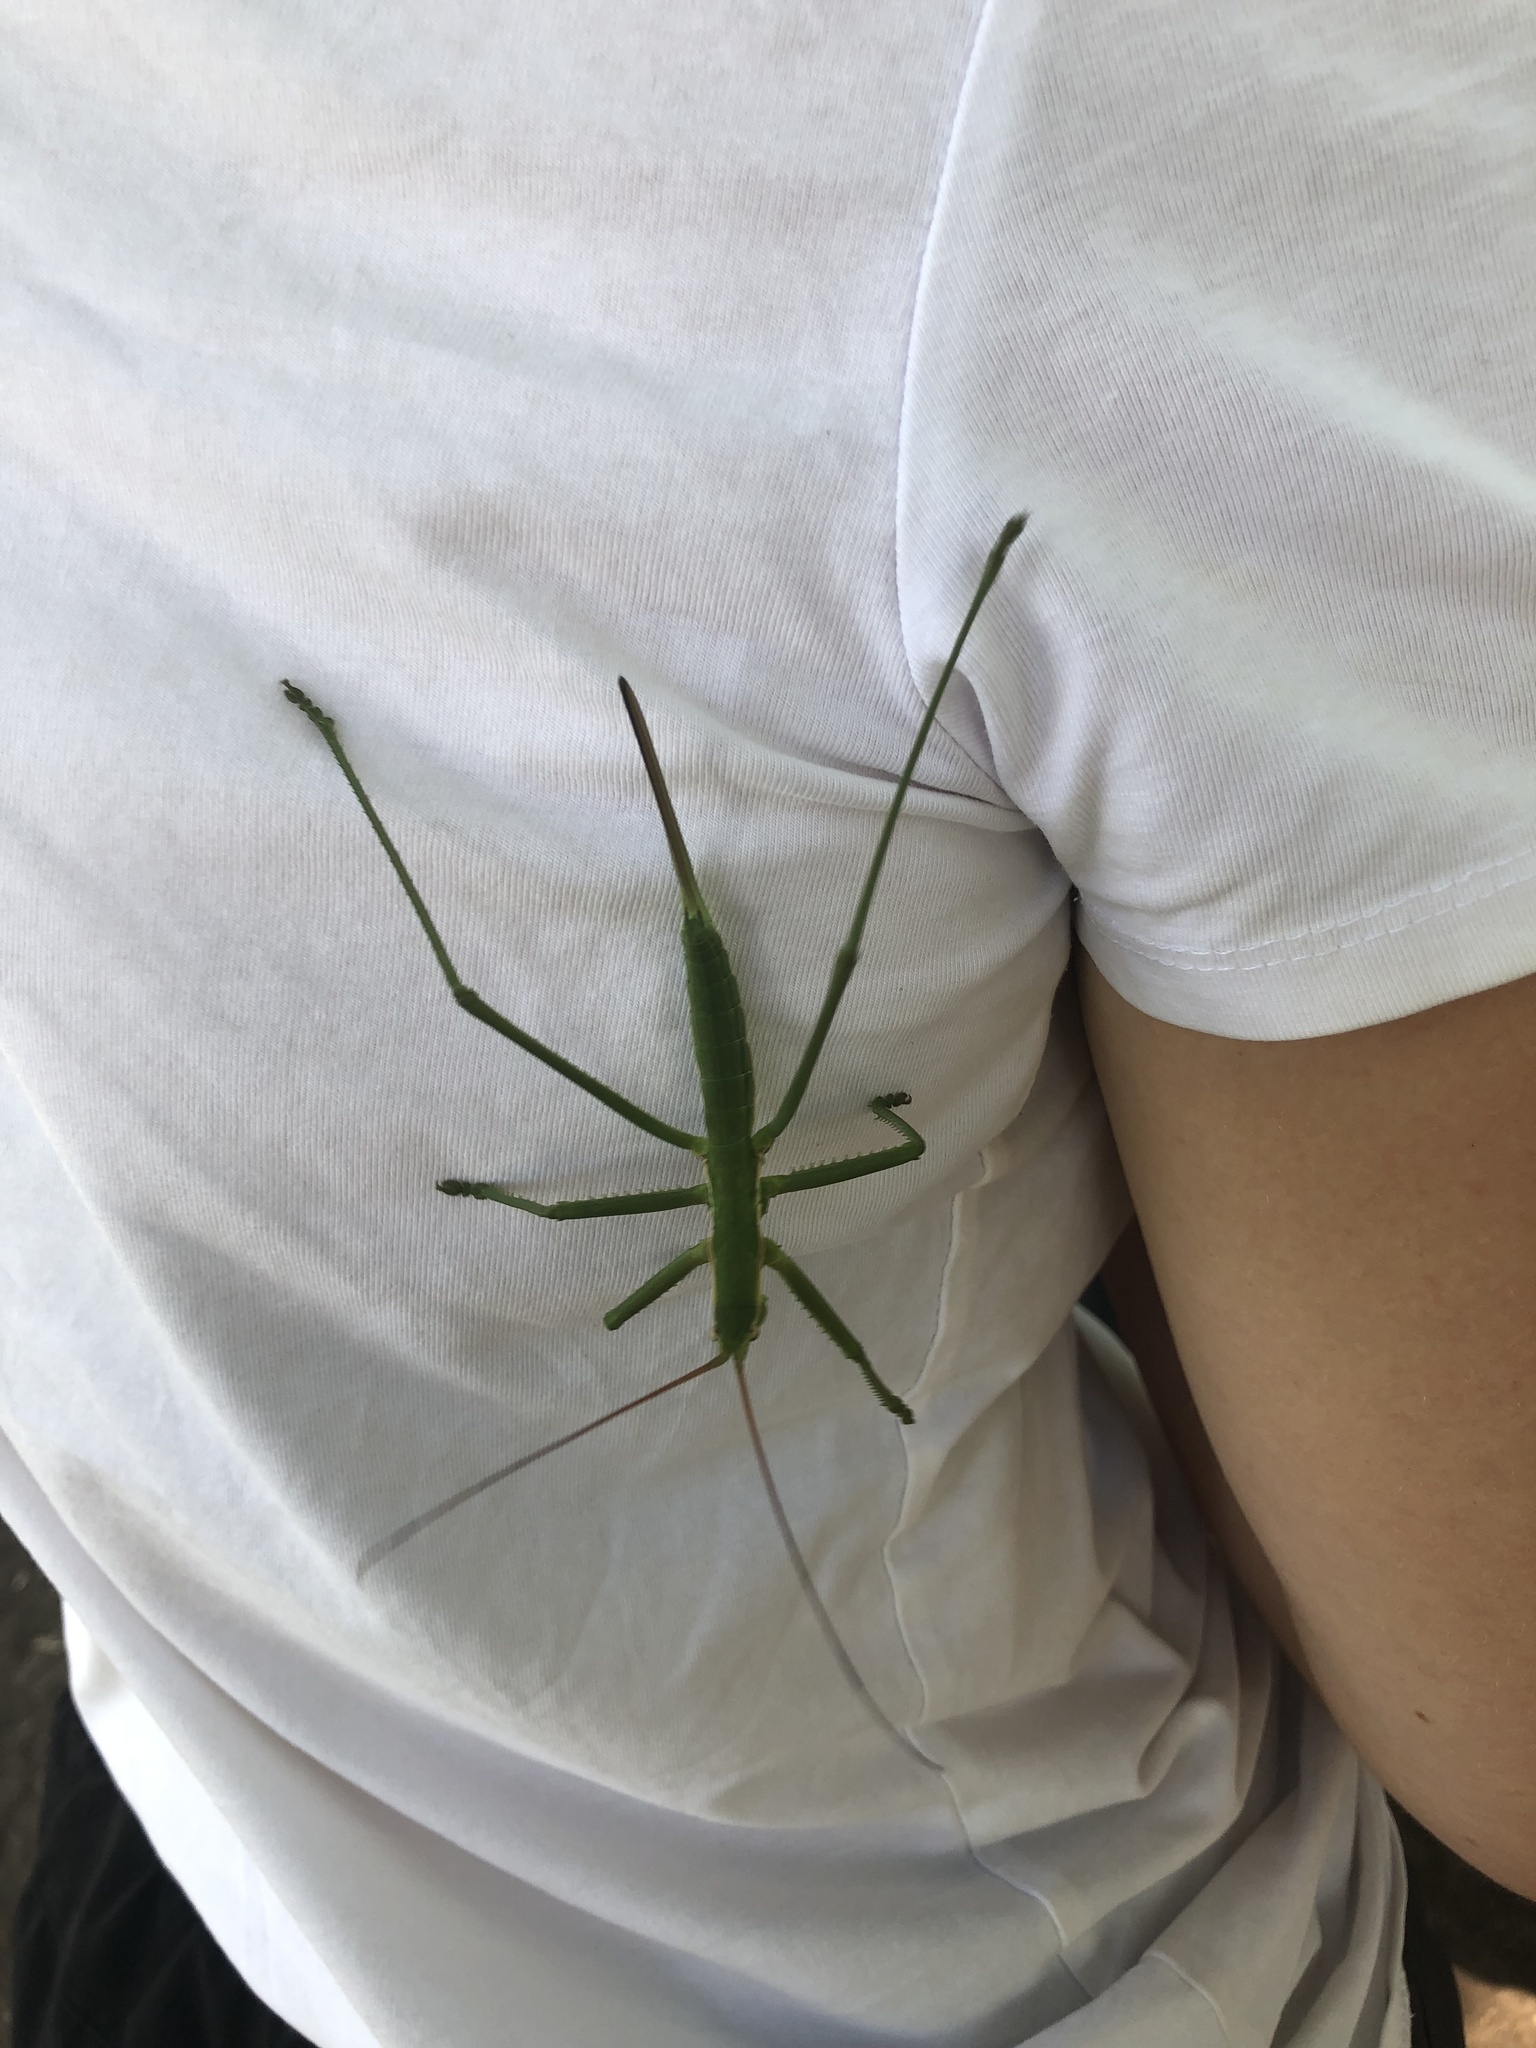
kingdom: Animalia
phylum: Arthropoda
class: Insecta
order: Orthoptera
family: Tettigoniidae
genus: Saga
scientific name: Saga pedo
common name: Common predatory bush-cricket
